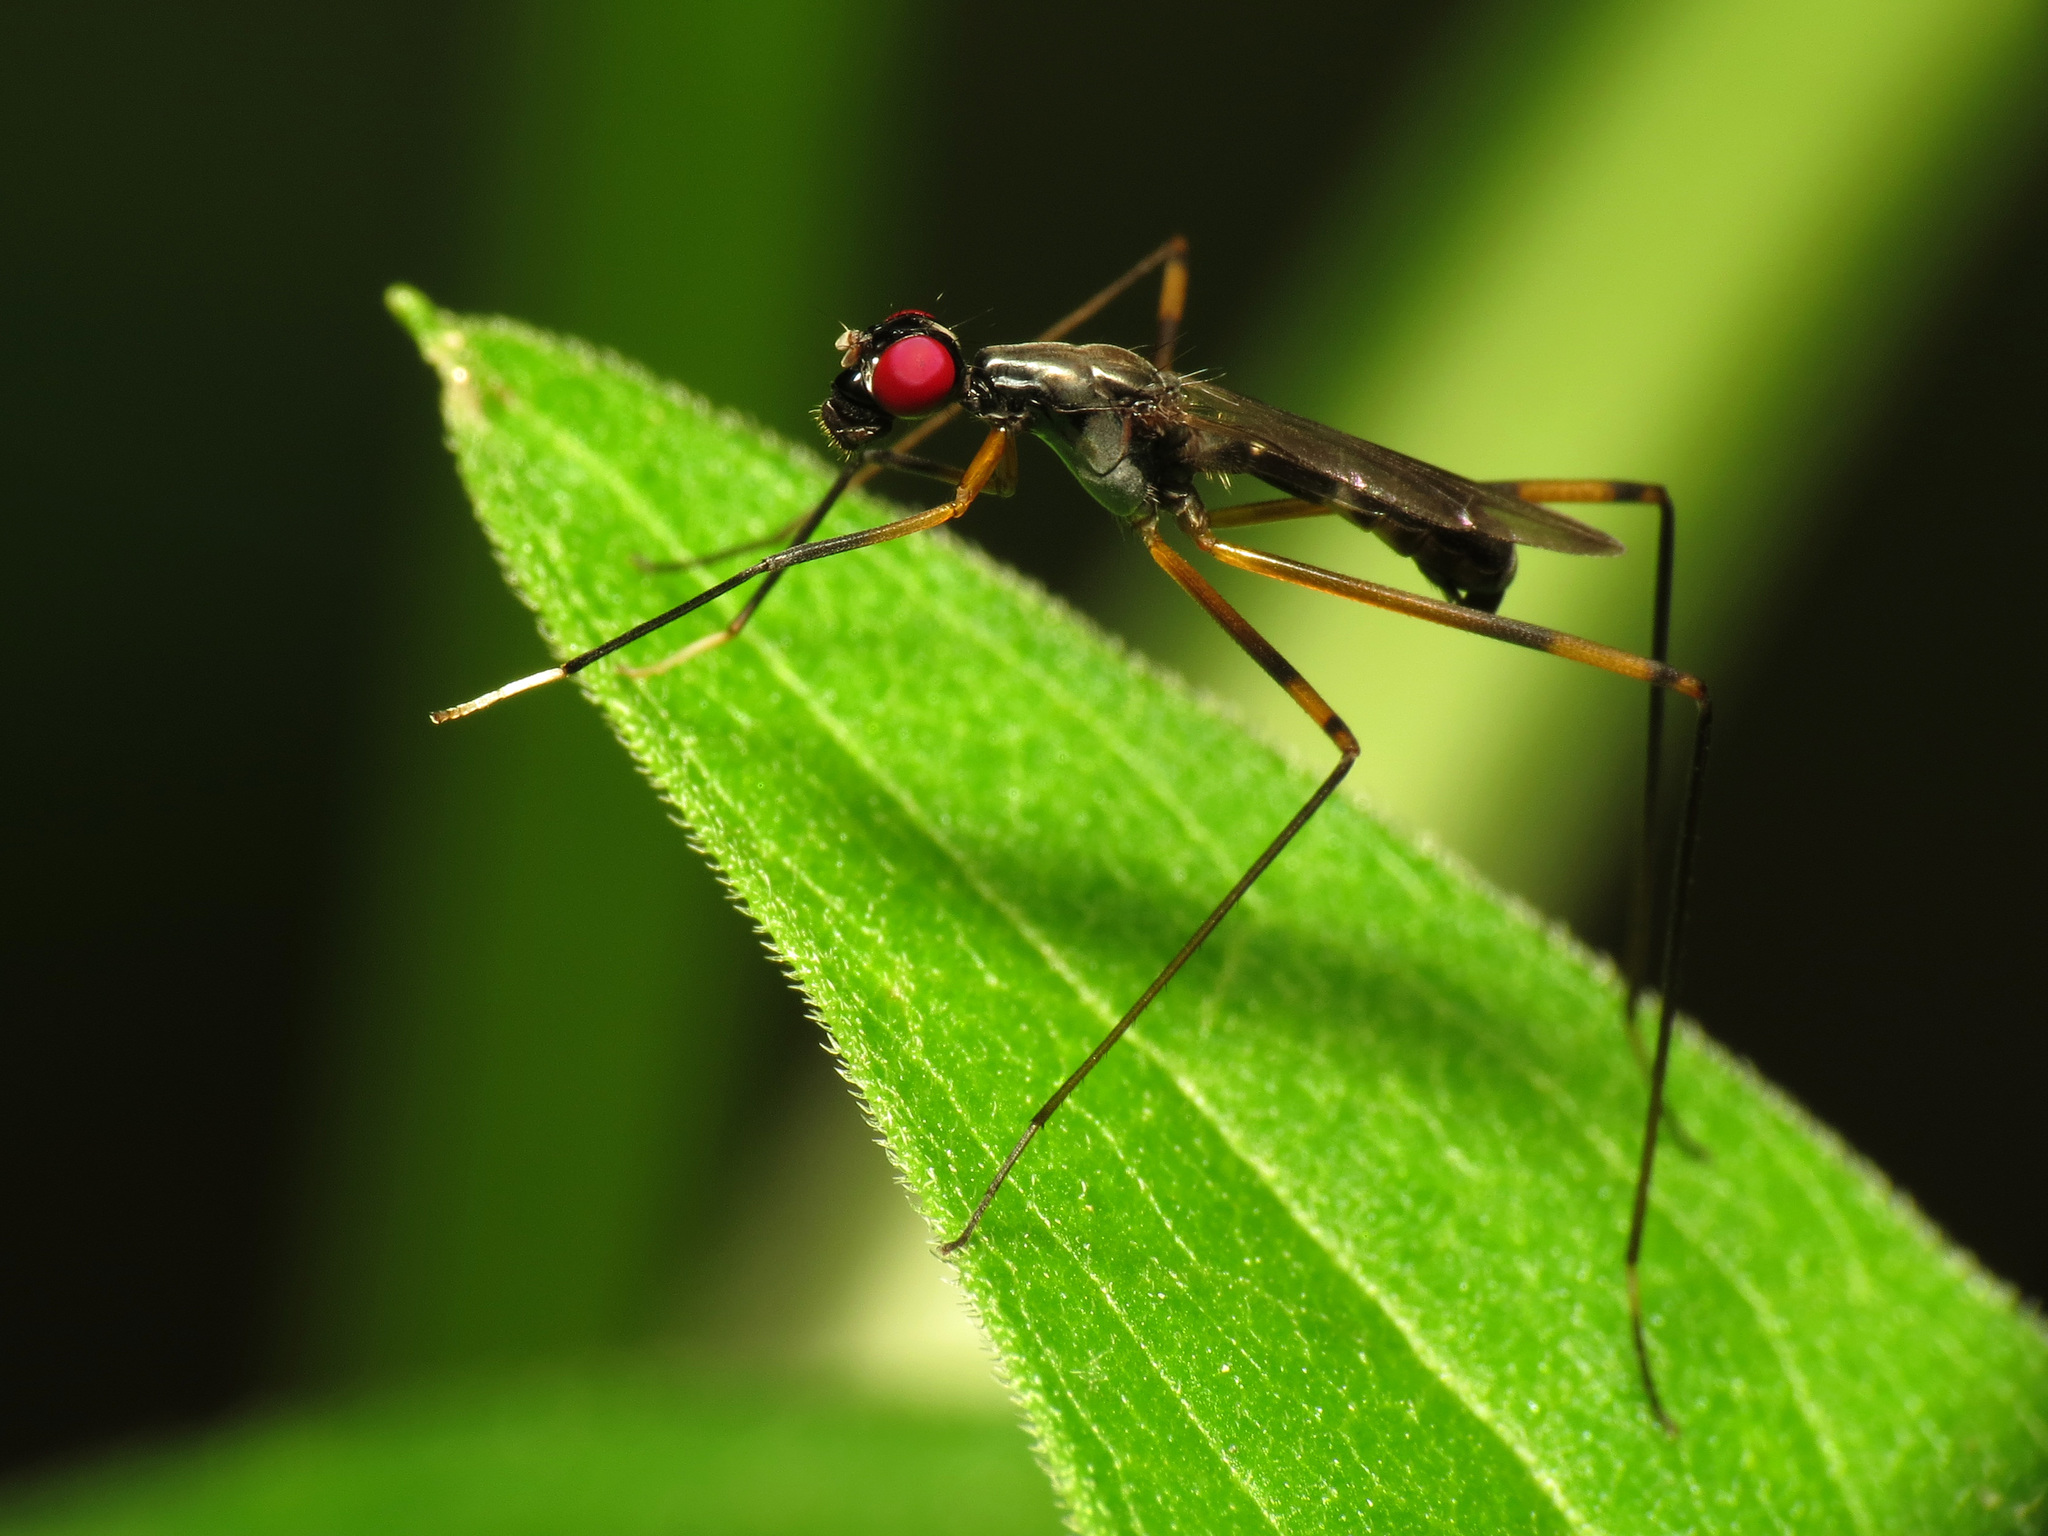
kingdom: Animalia
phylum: Arthropoda
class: Insecta
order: Diptera
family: Micropezidae
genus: Rainieria
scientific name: Rainieria antennaepes
